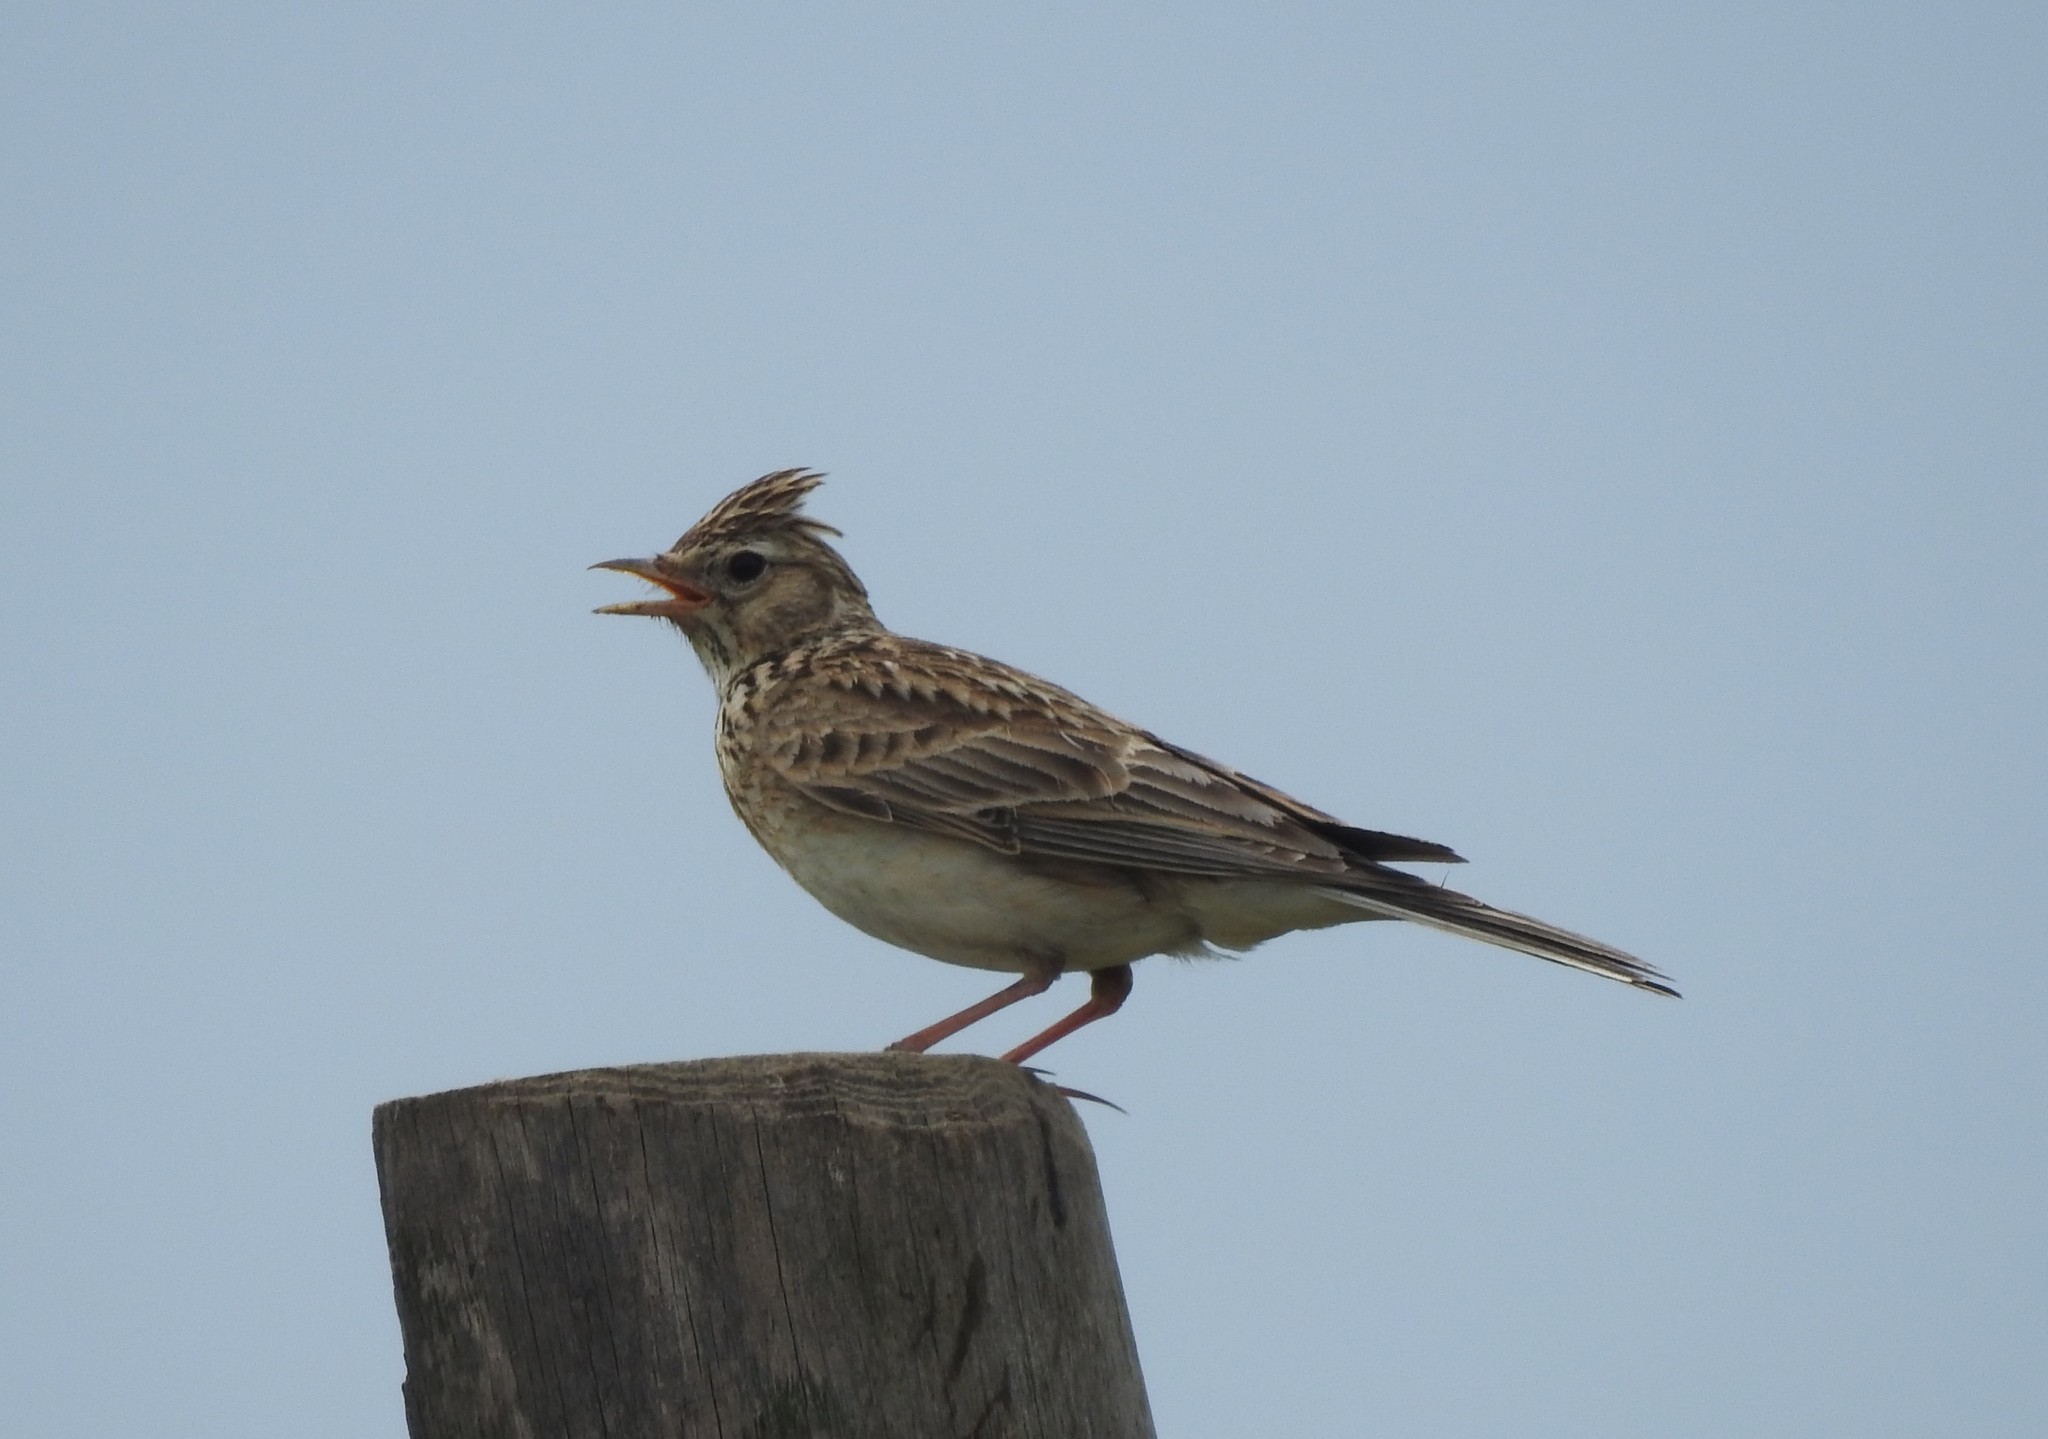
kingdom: Animalia
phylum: Chordata
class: Aves
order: Passeriformes
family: Alaudidae
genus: Alauda
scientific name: Alauda arvensis
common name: Eurasian skylark
